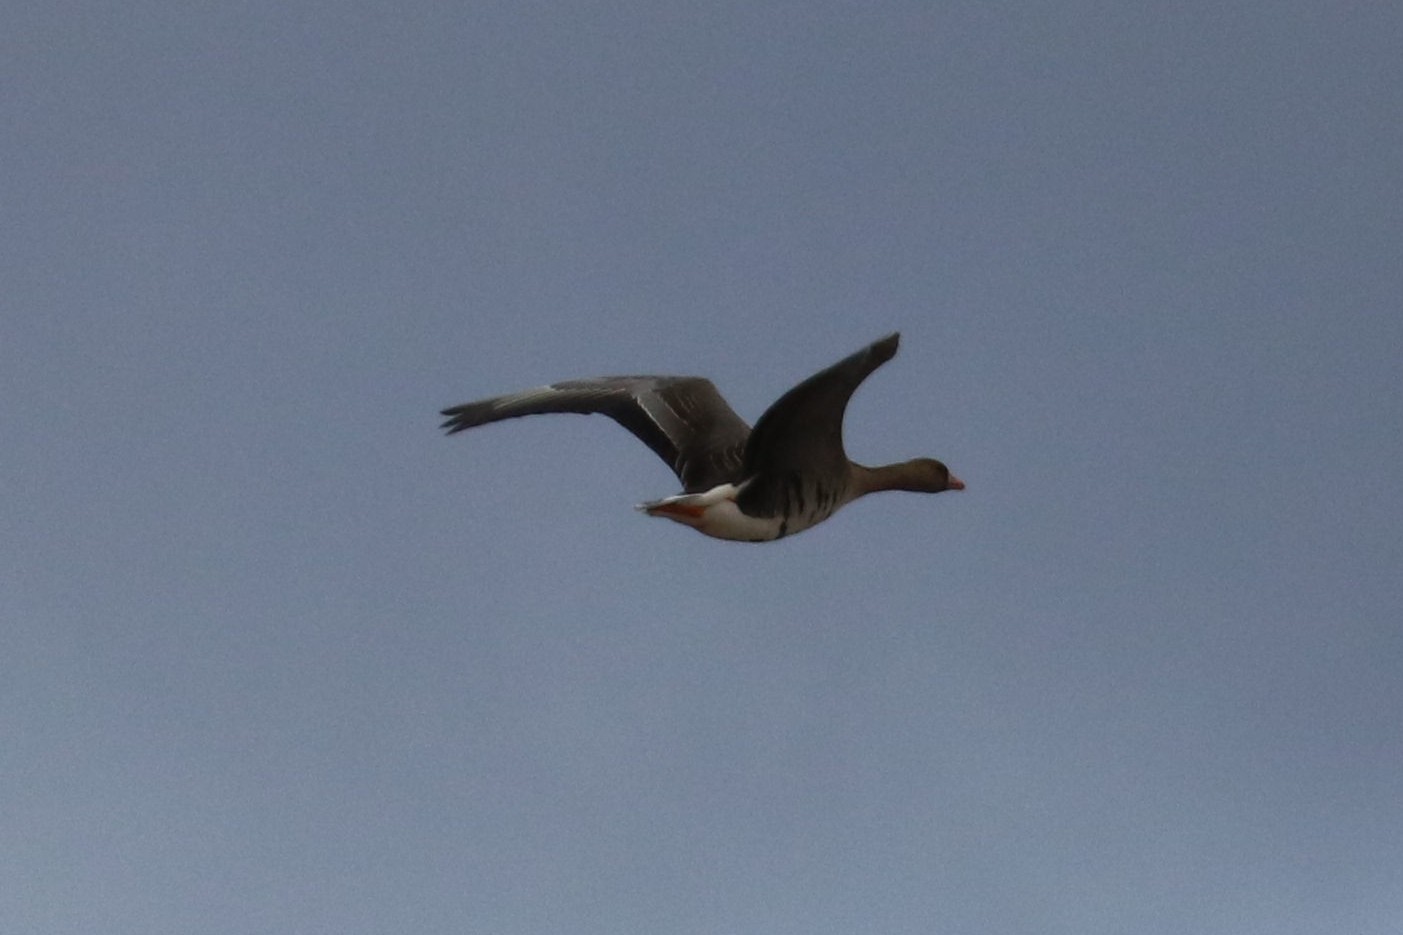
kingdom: Animalia
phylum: Chordata
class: Aves
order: Anseriformes
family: Anatidae
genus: Anser
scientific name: Anser albifrons
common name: Greater white-fronted goose
